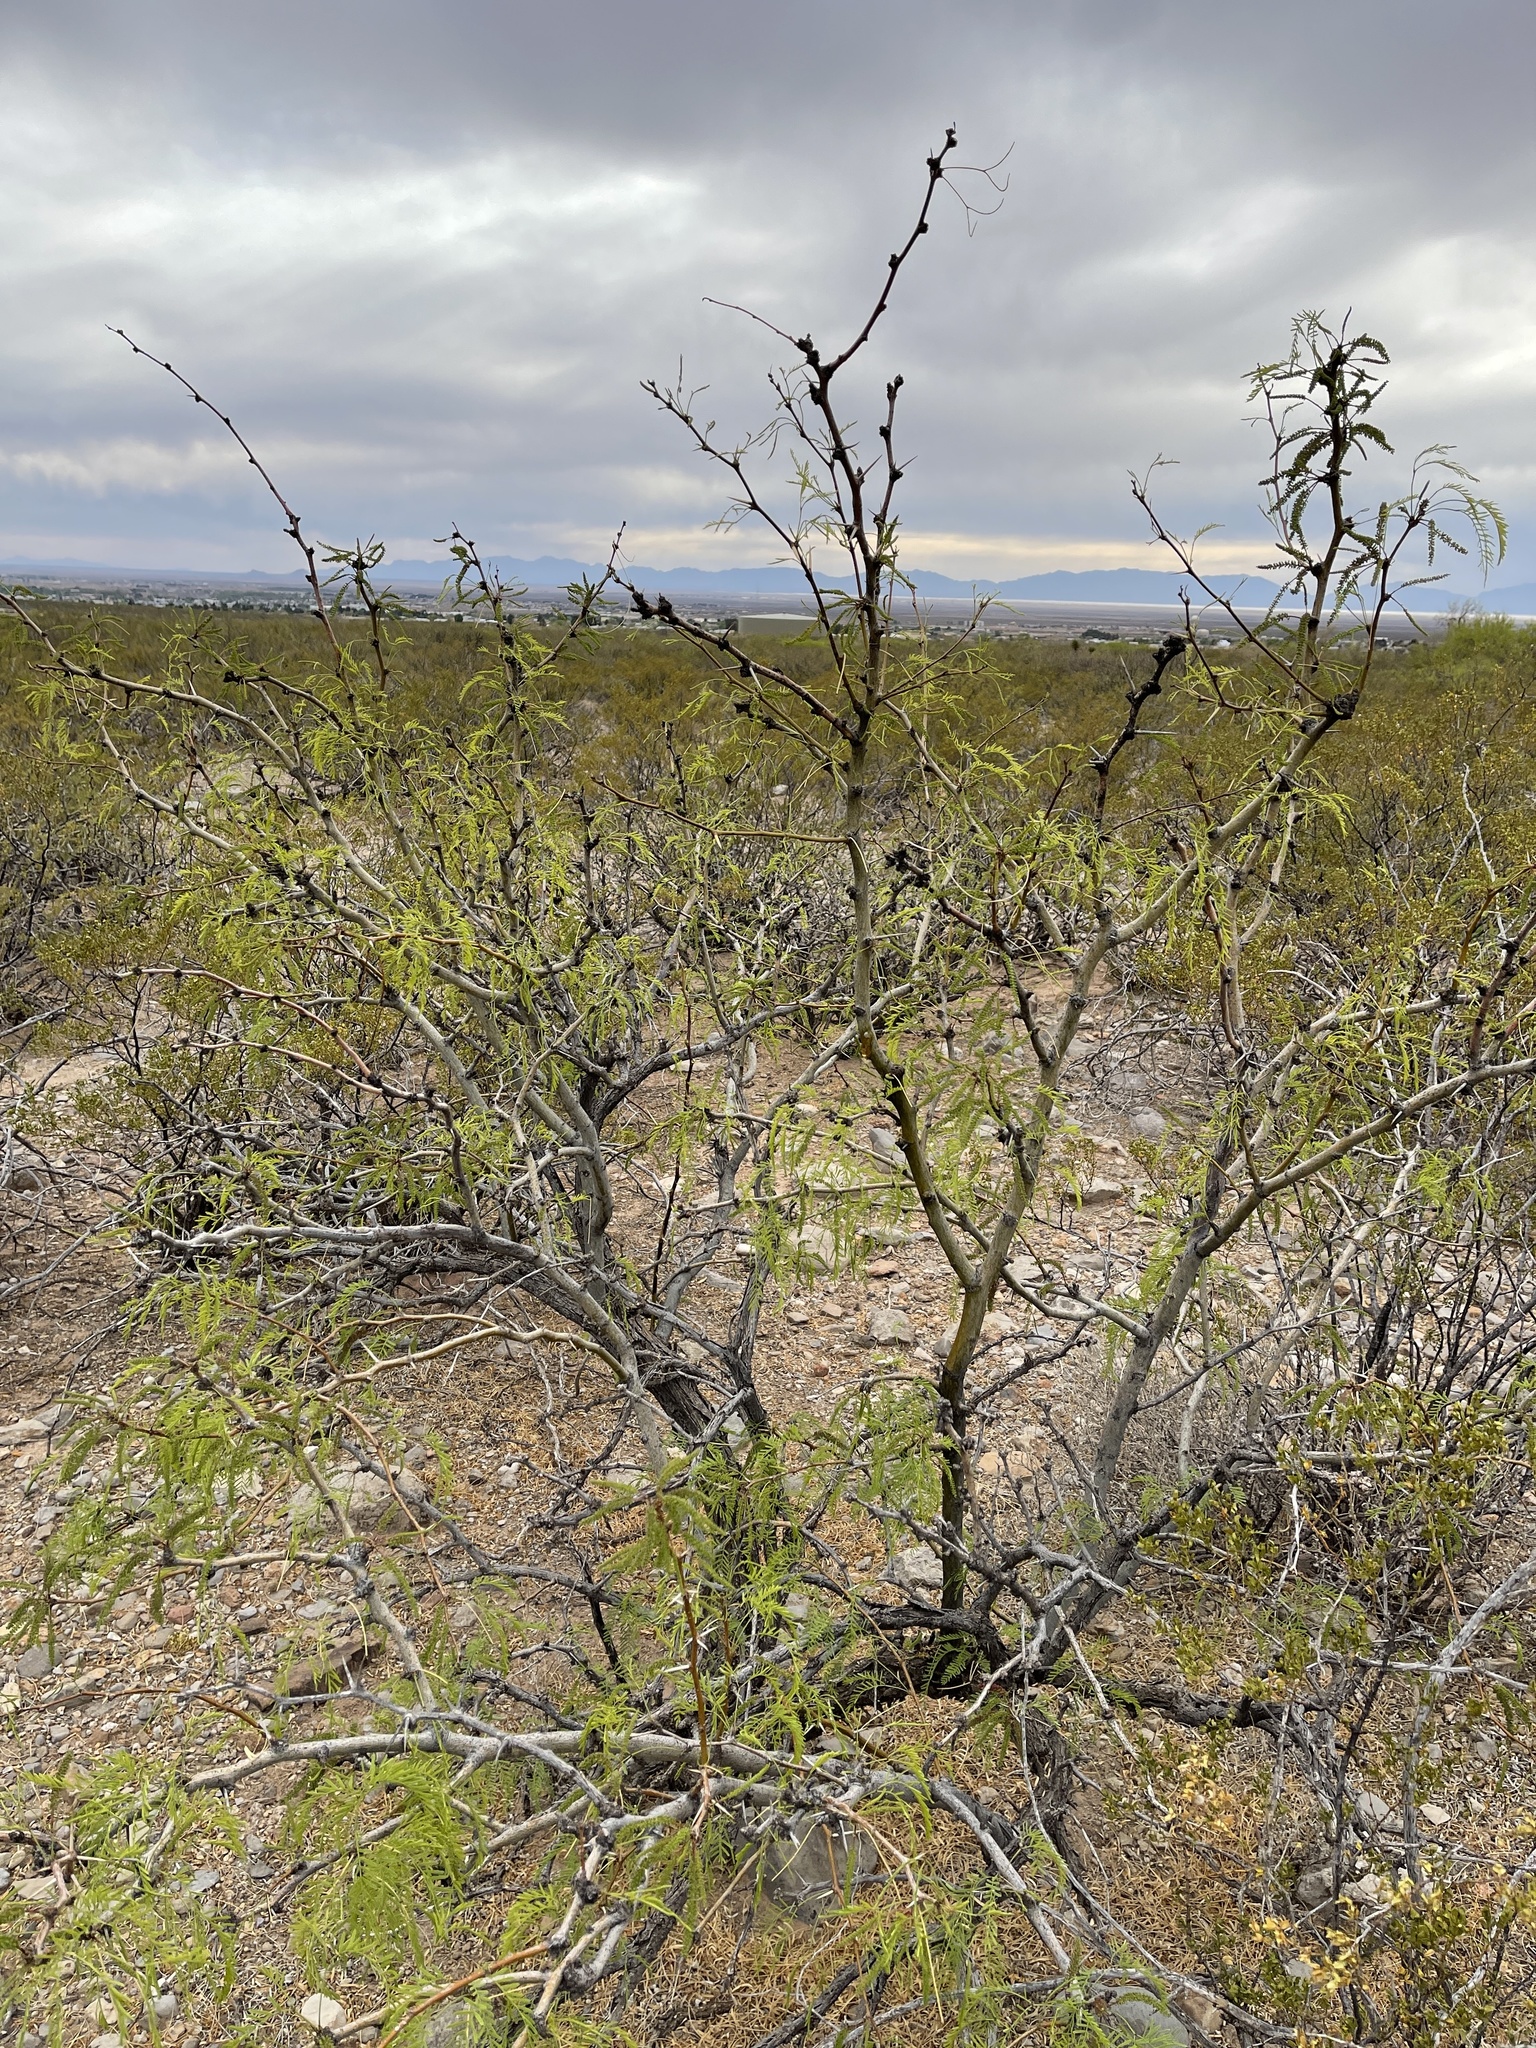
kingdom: Plantae
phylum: Tracheophyta
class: Magnoliopsida
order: Fabales
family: Fabaceae
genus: Prosopis
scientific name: Prosopis glandulosa
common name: Honey mesquite
